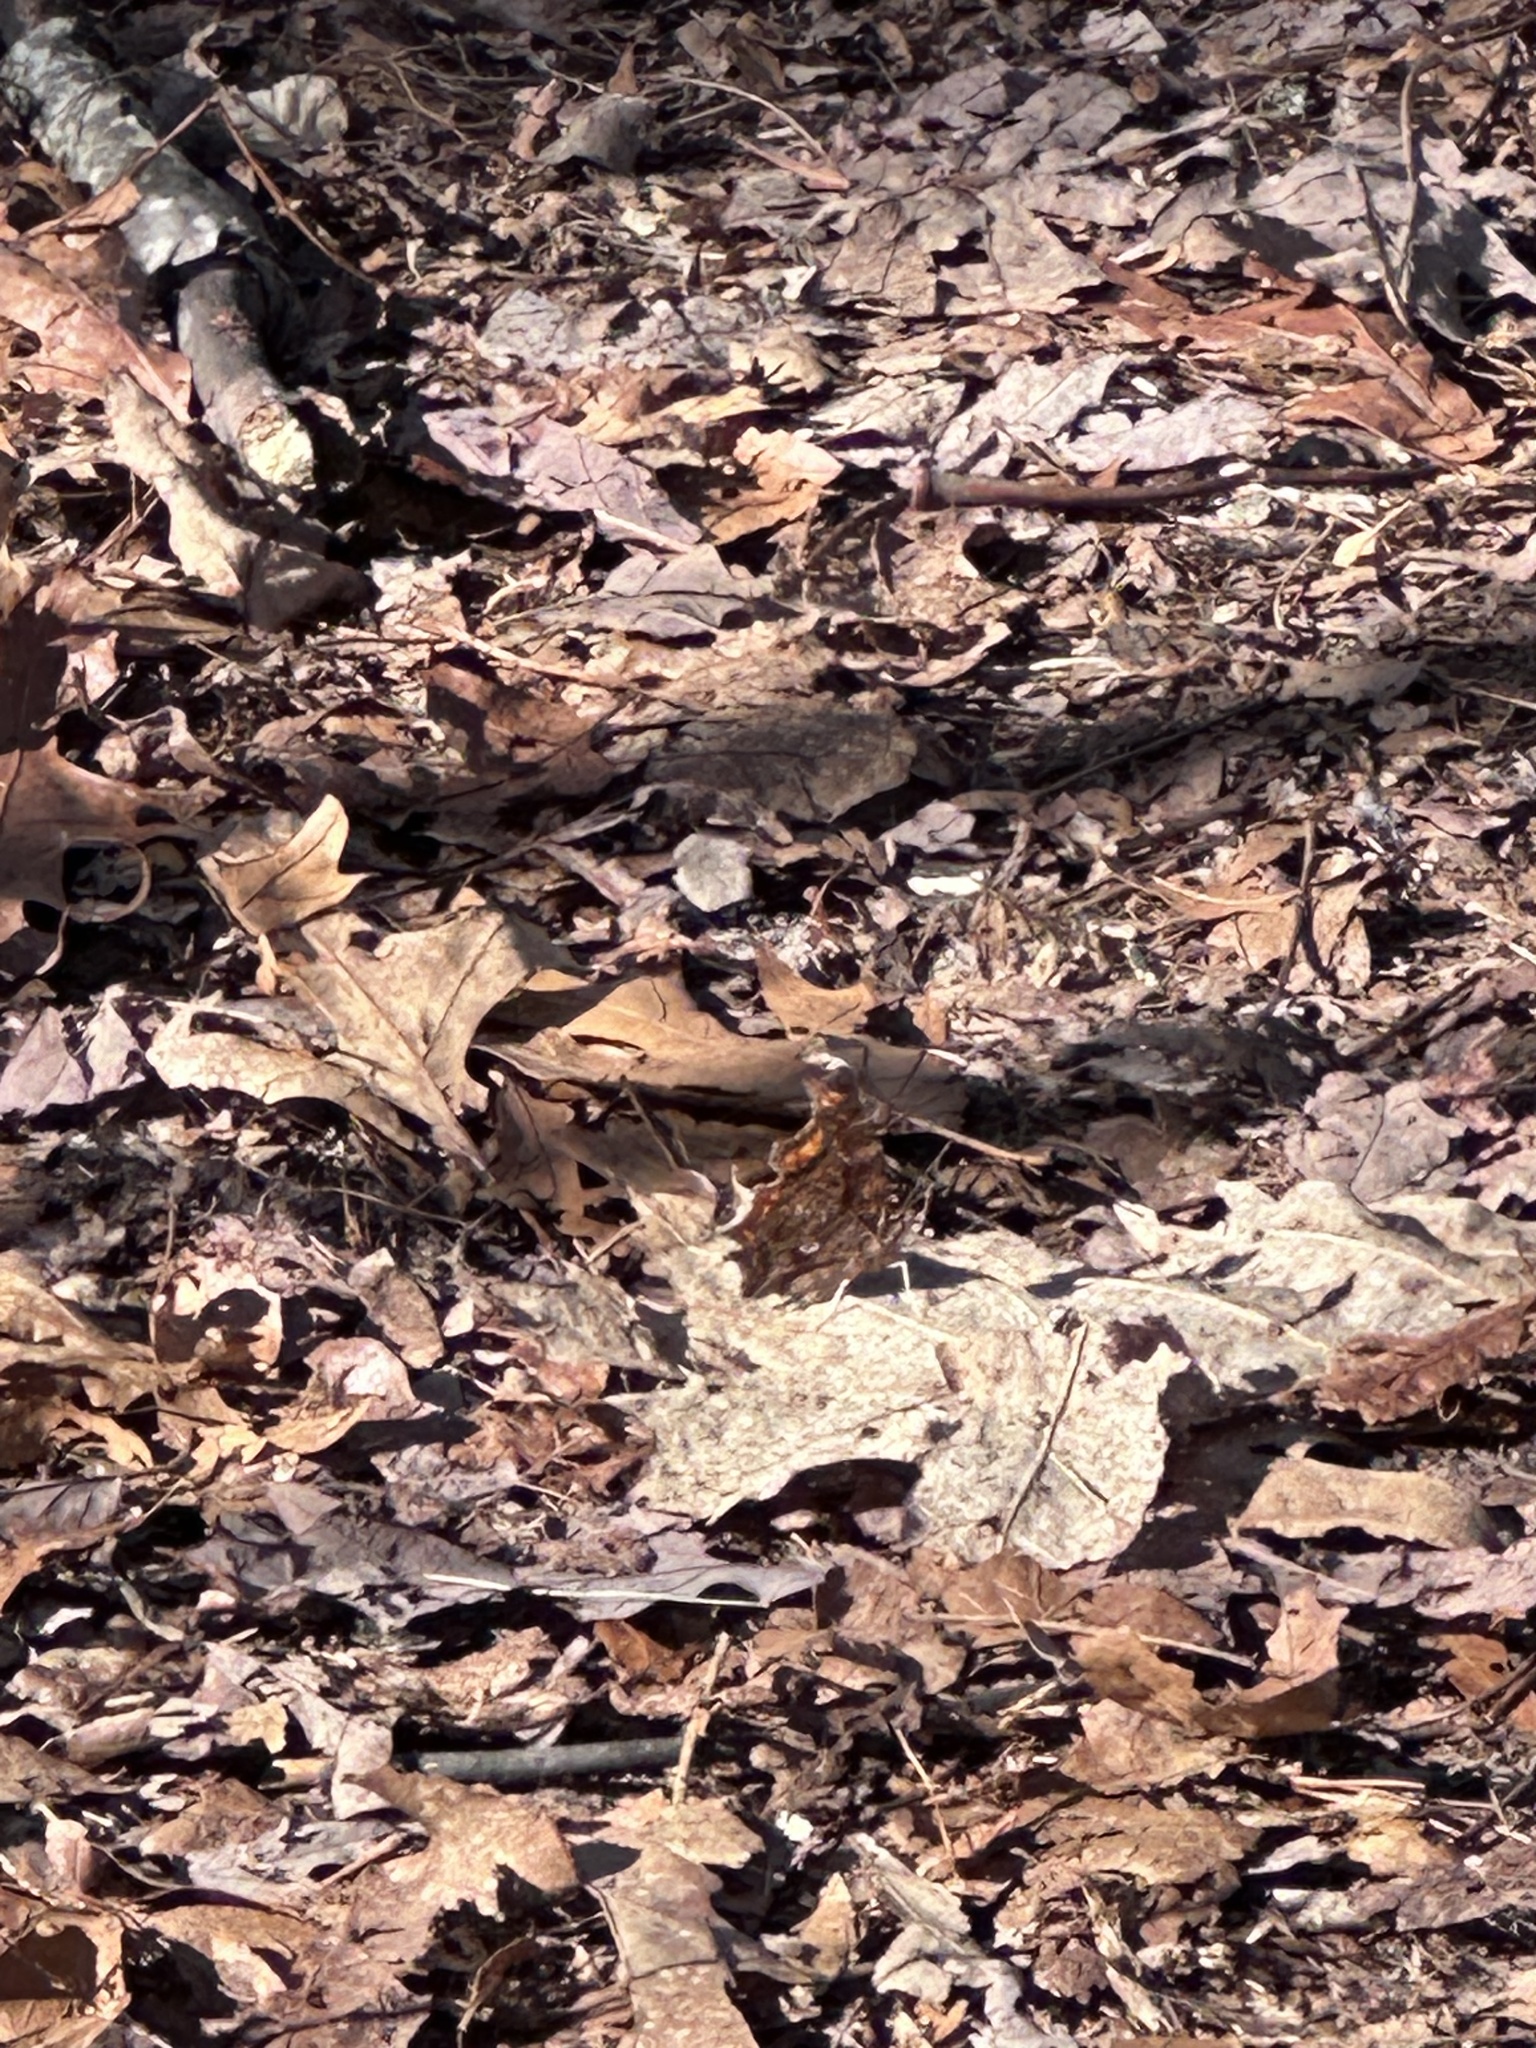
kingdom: Animalia
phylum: Arthropoda
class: Insecta
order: Lepidoptera
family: Nymphalidae
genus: Polygonia
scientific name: Polygonia comma
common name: Eastern comma
